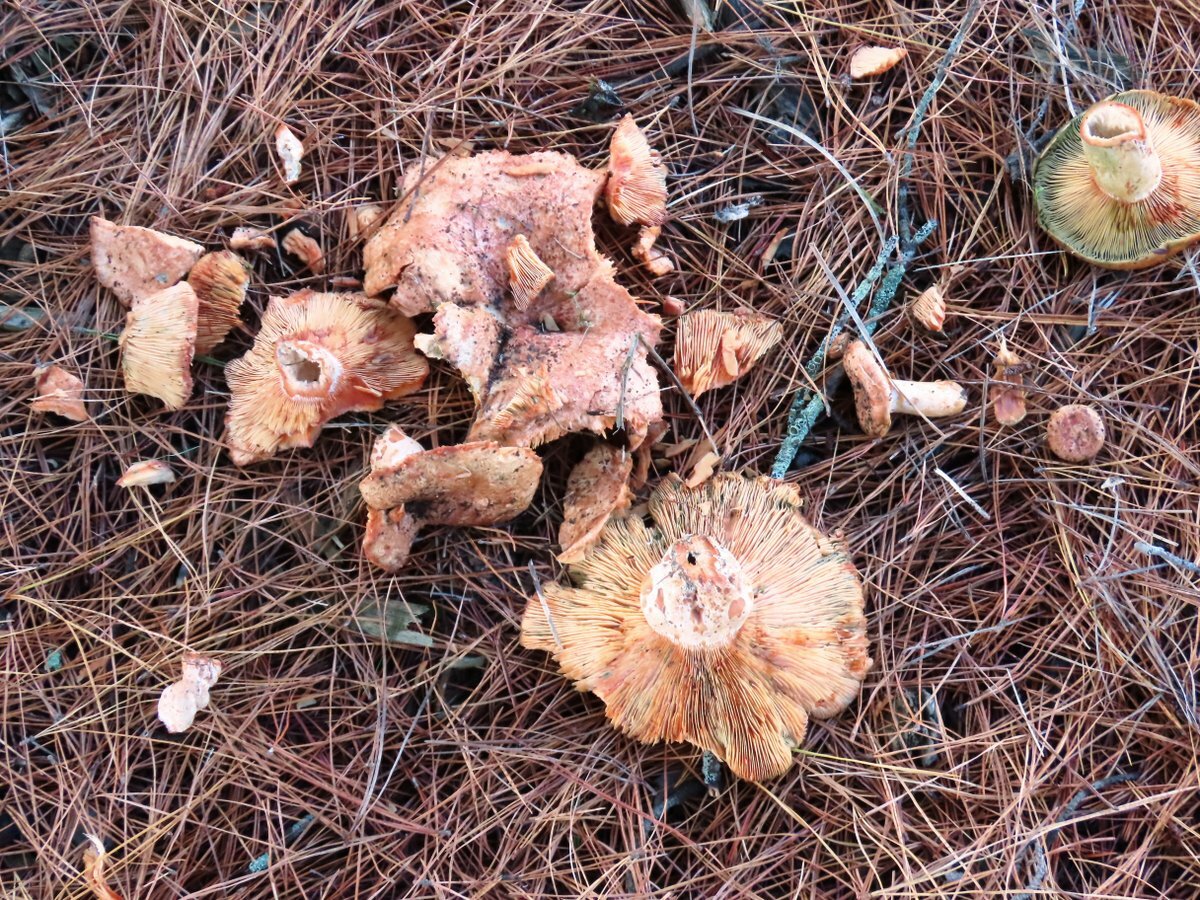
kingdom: Fungi
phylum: Basidiomycota
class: Agaricomycetes
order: Russulales
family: Russulaceae
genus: Lactarius
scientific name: Lactarius deliciosus
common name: Saffron milk-cap
